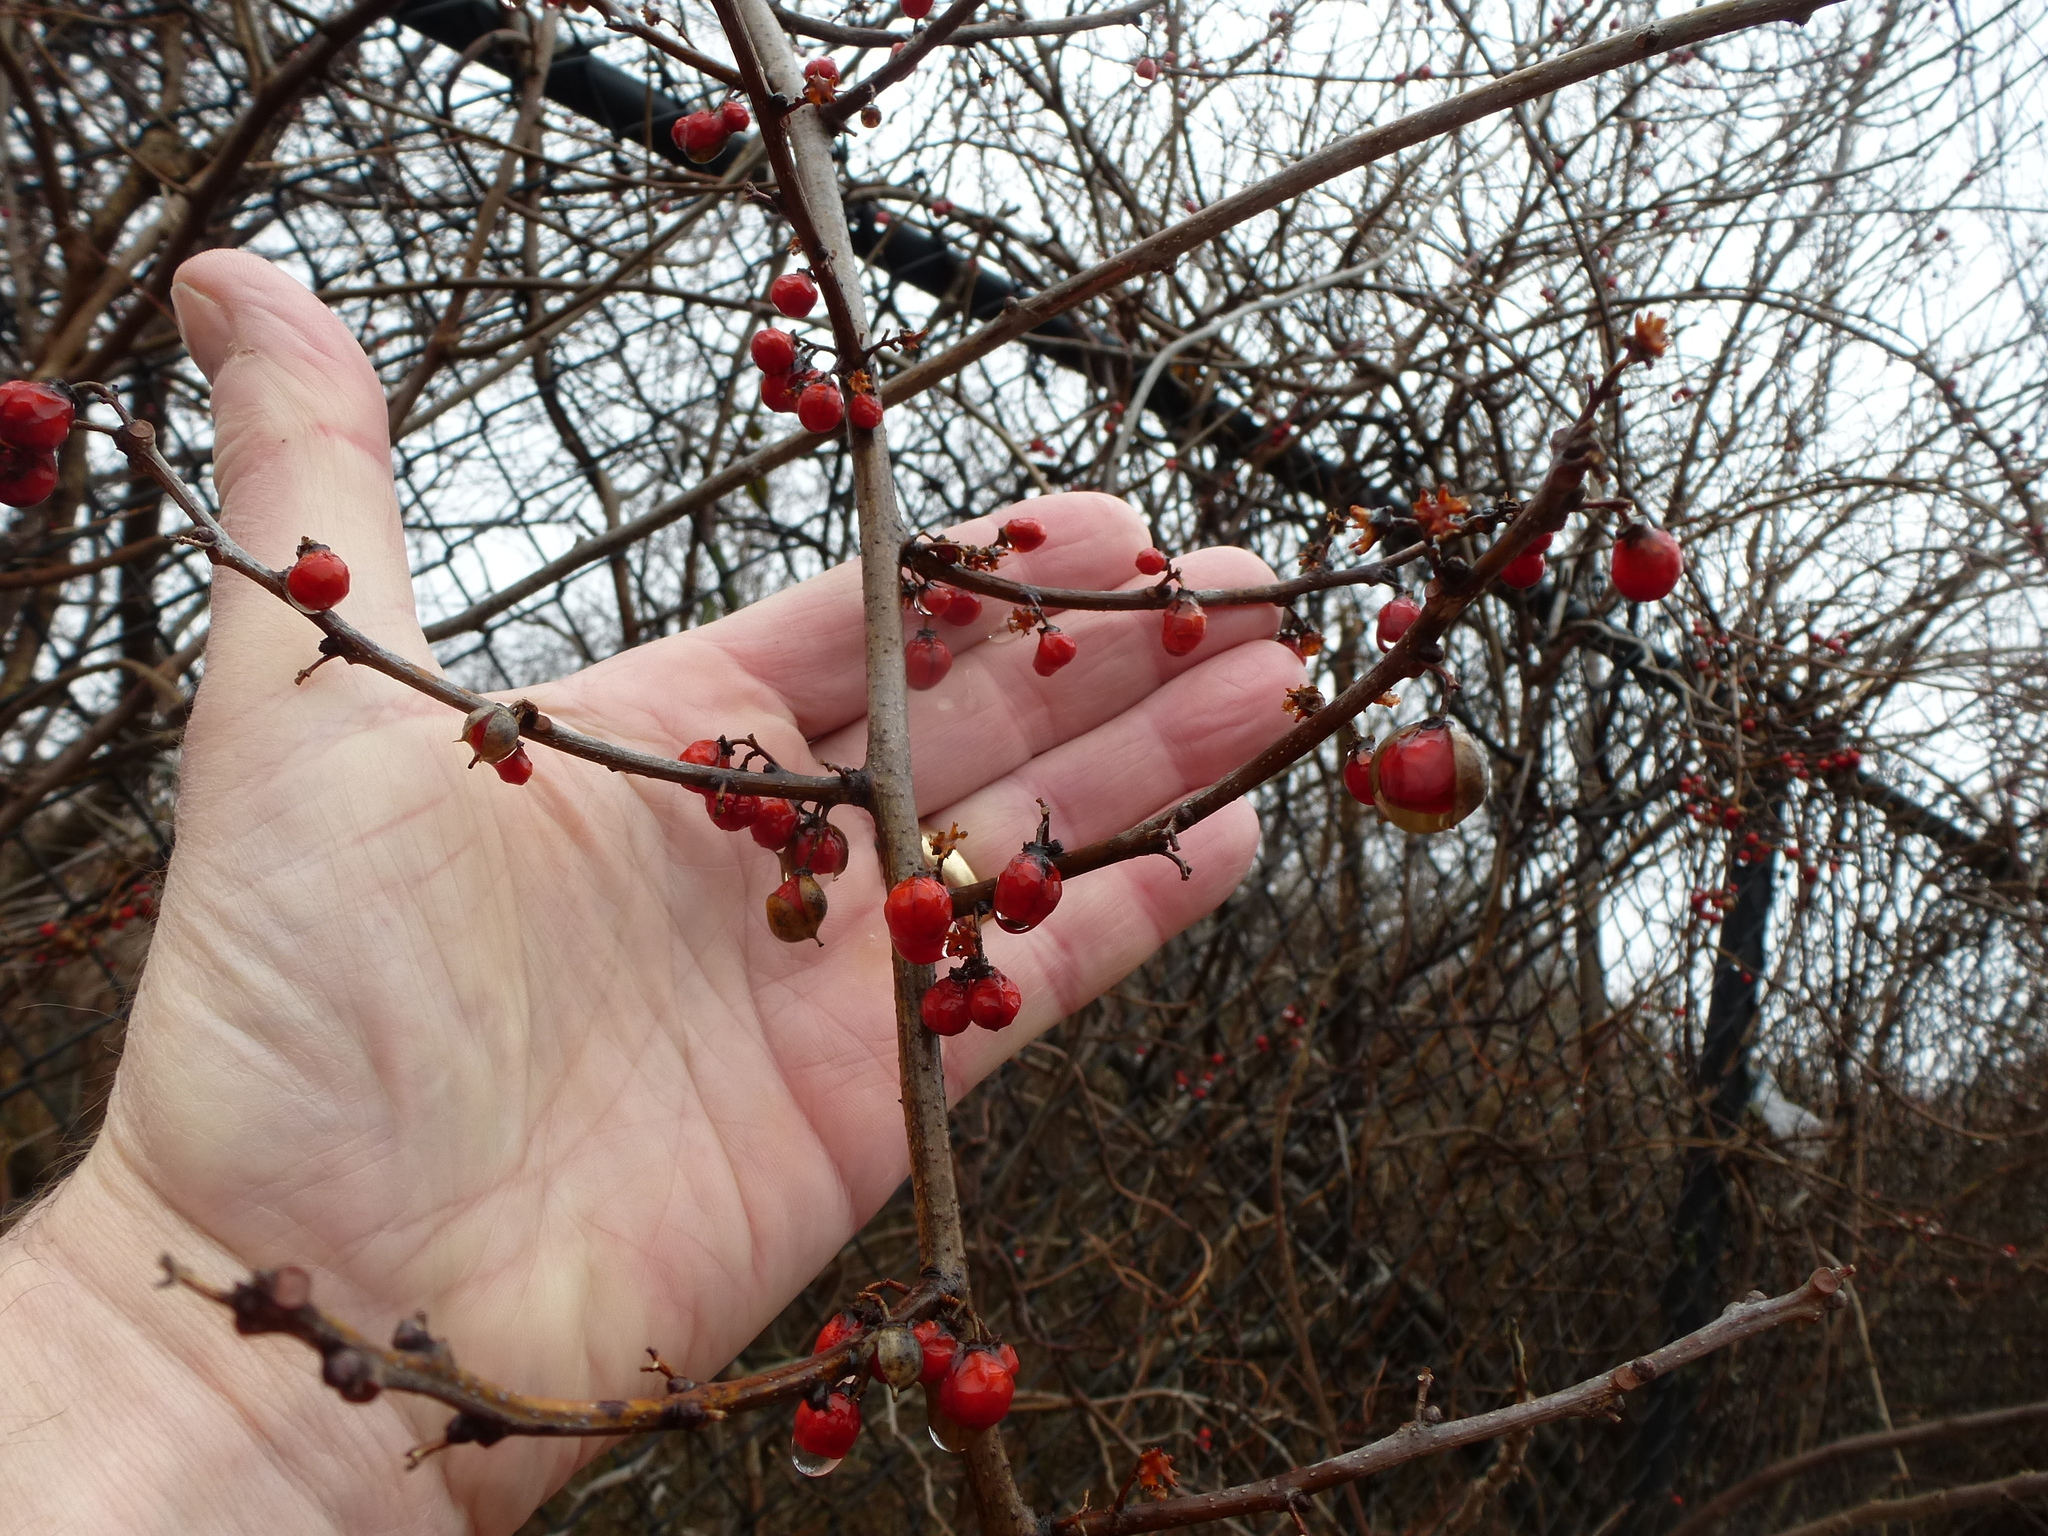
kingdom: Plantae
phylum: Tracheophyta
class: Magnoliopsida
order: Celastrales
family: Celastraceae
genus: Celastrus
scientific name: Celastrus orbiculatus
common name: Oriental bittersweet
